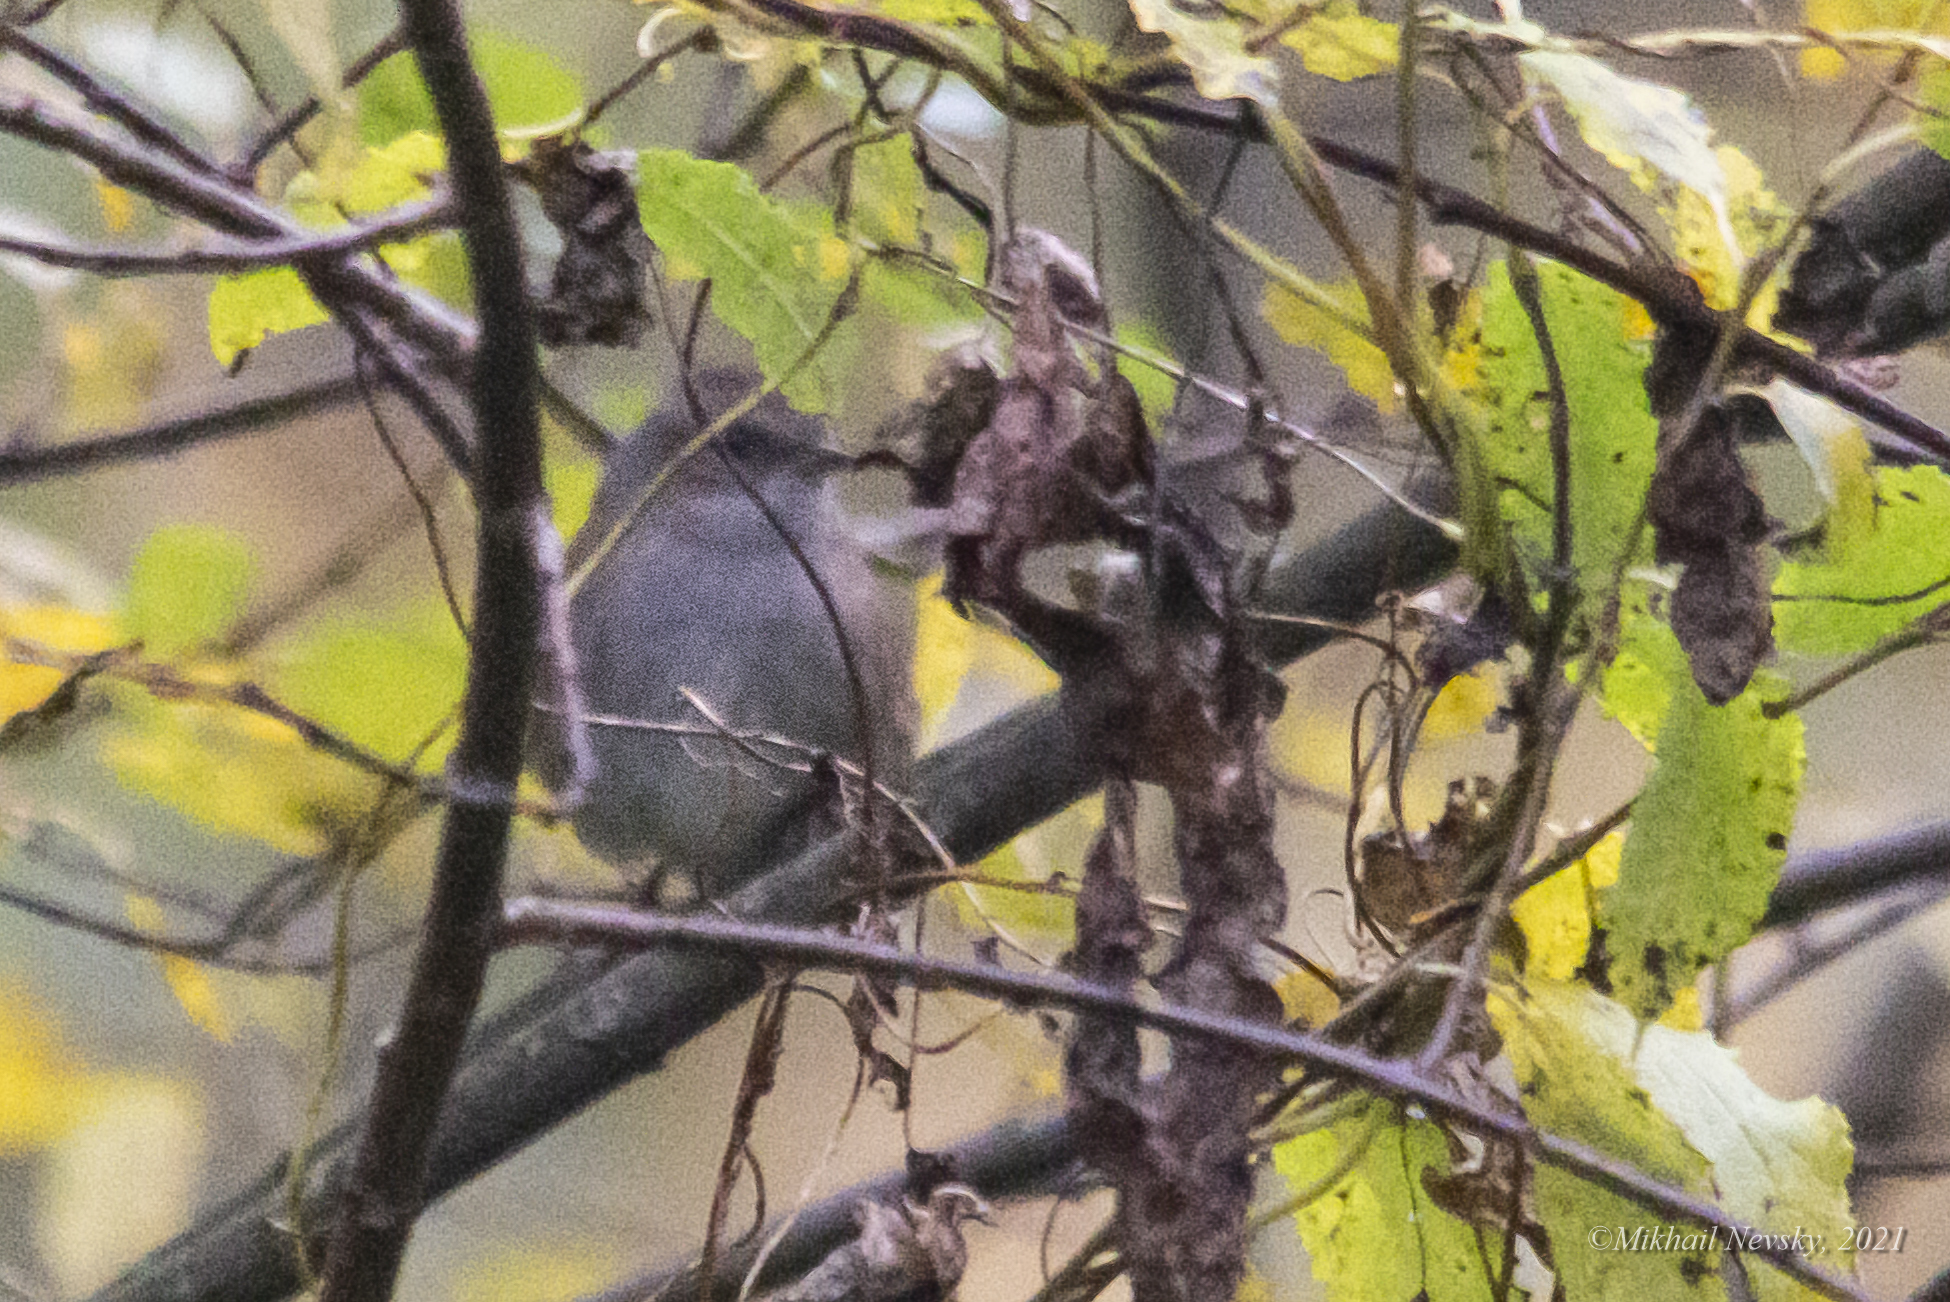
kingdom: Animalia
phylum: Chordata
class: Aves
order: Passeriformes
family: Prunellidae
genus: Prunella
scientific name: Prunella modularis
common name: Dunnock
